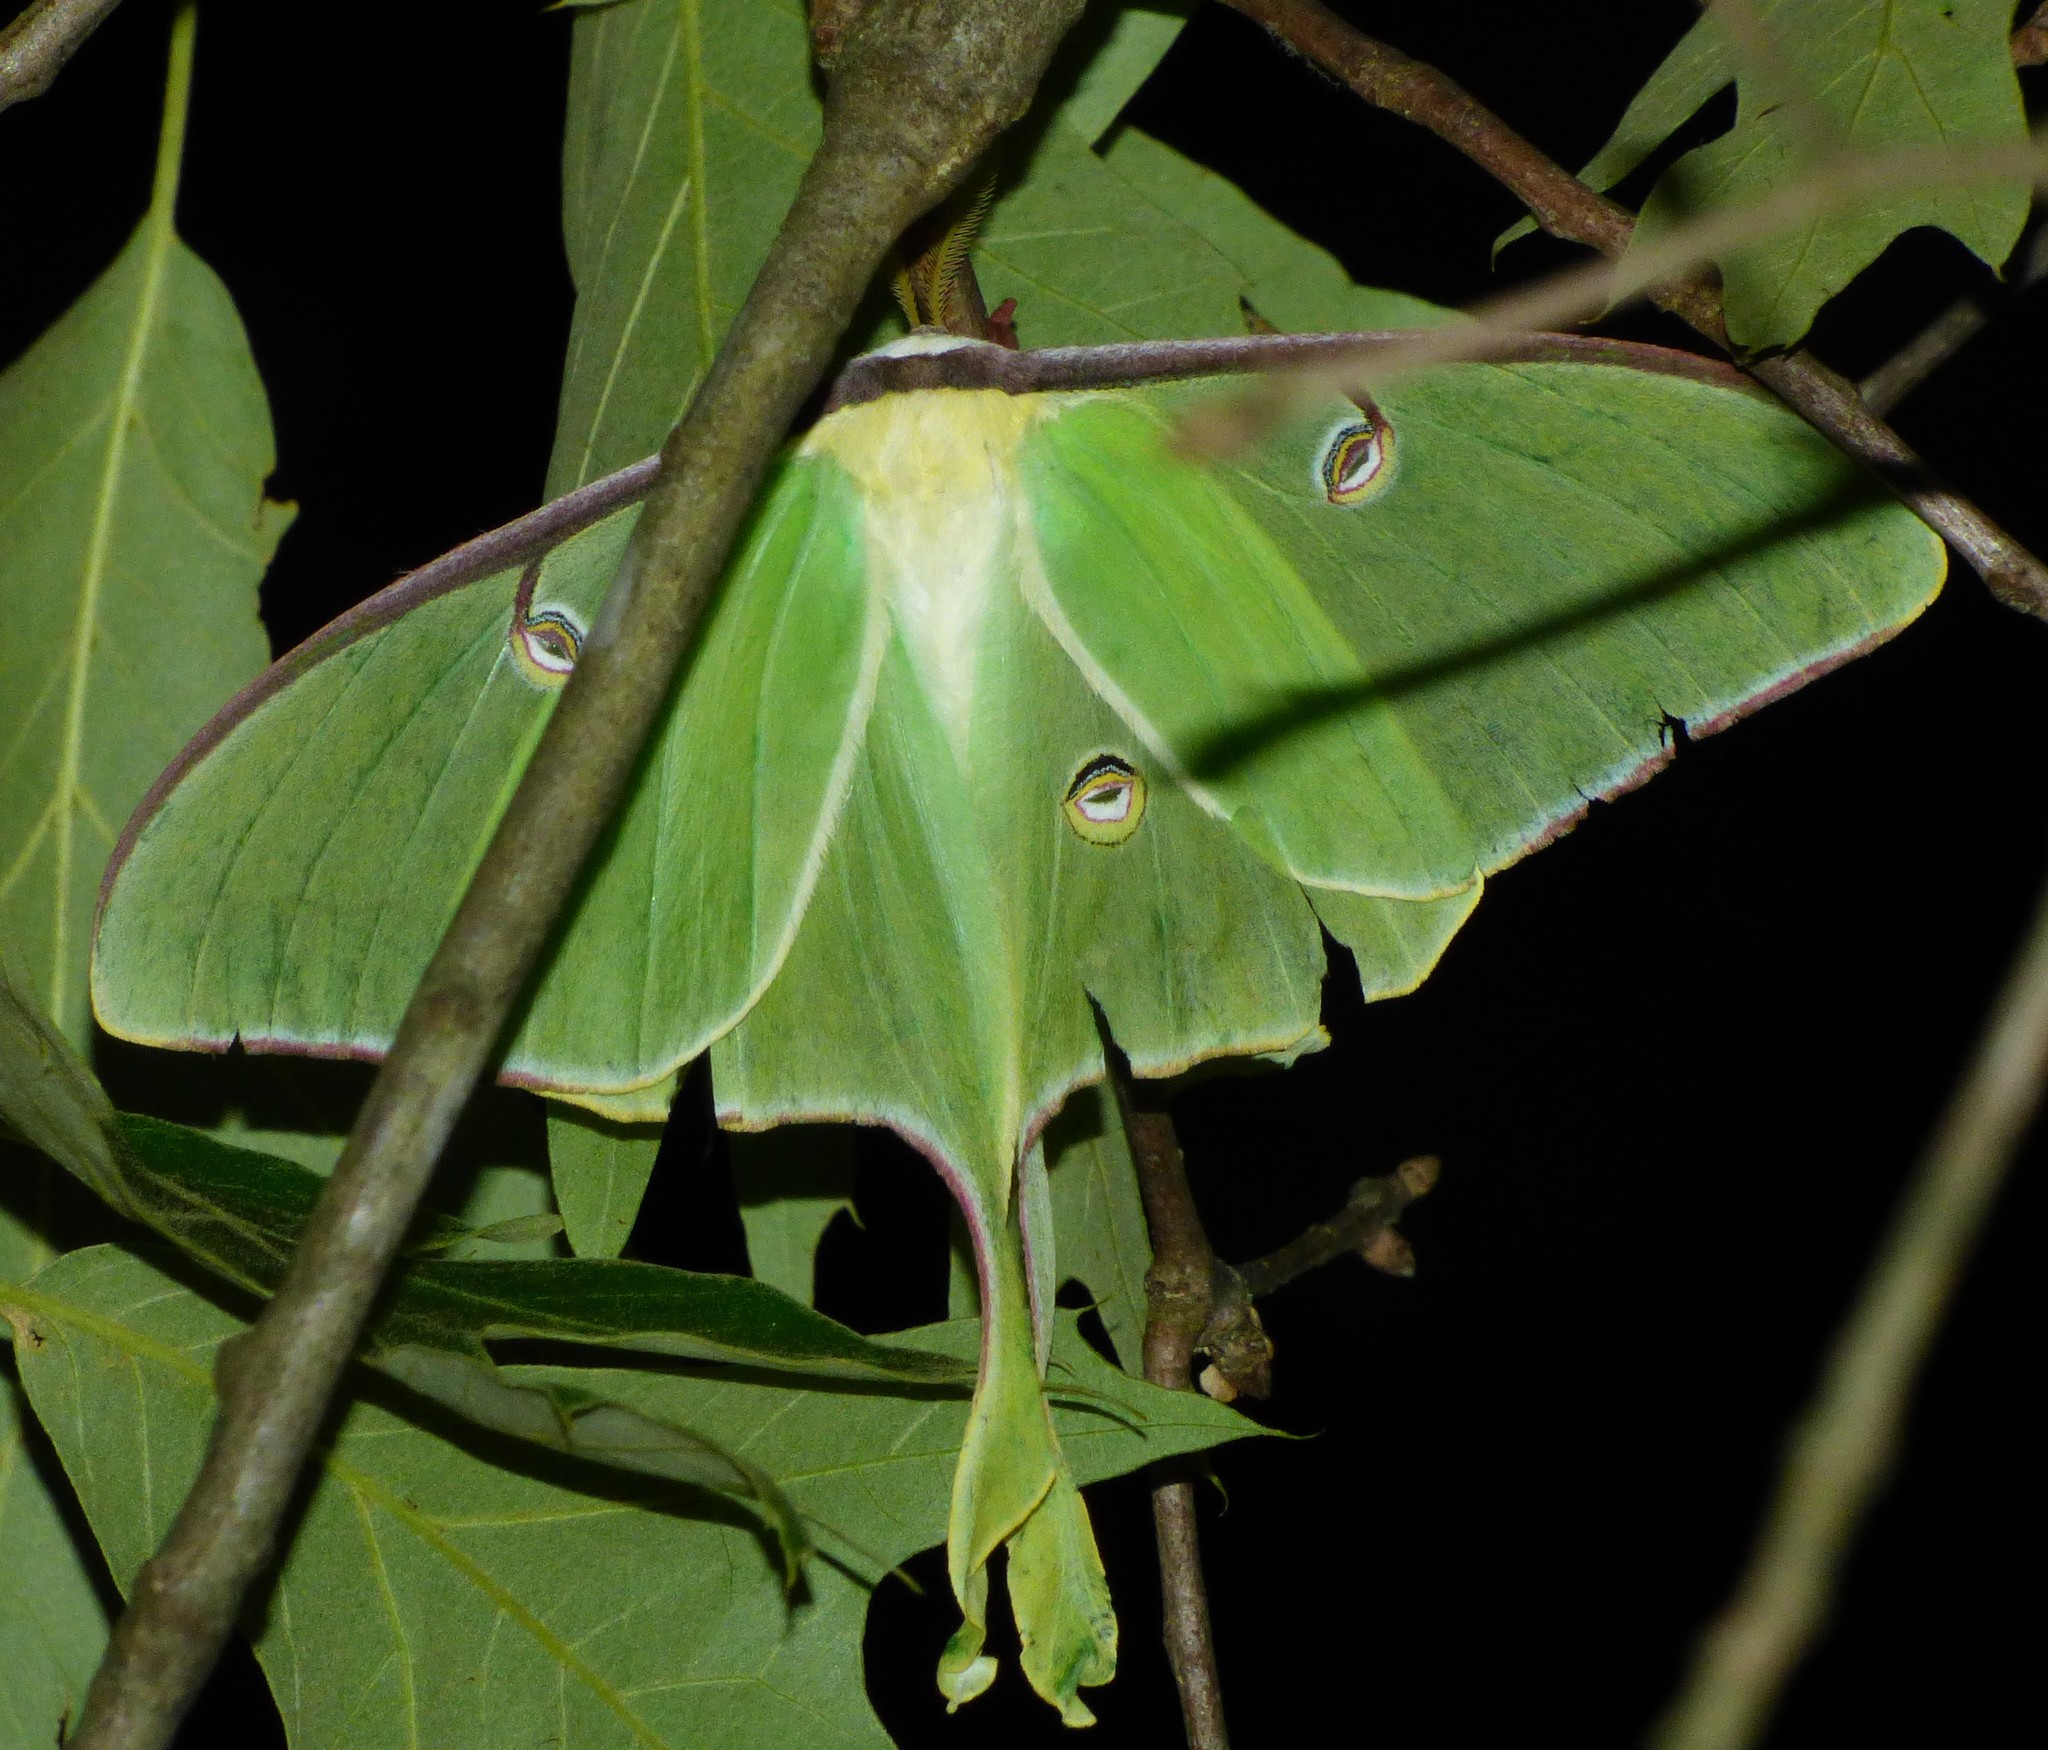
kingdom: Animalia
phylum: Arthropoda
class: Insecta
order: Lepidoptera
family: Saturniidae
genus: Actias
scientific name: Actias luna
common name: Luna moth
